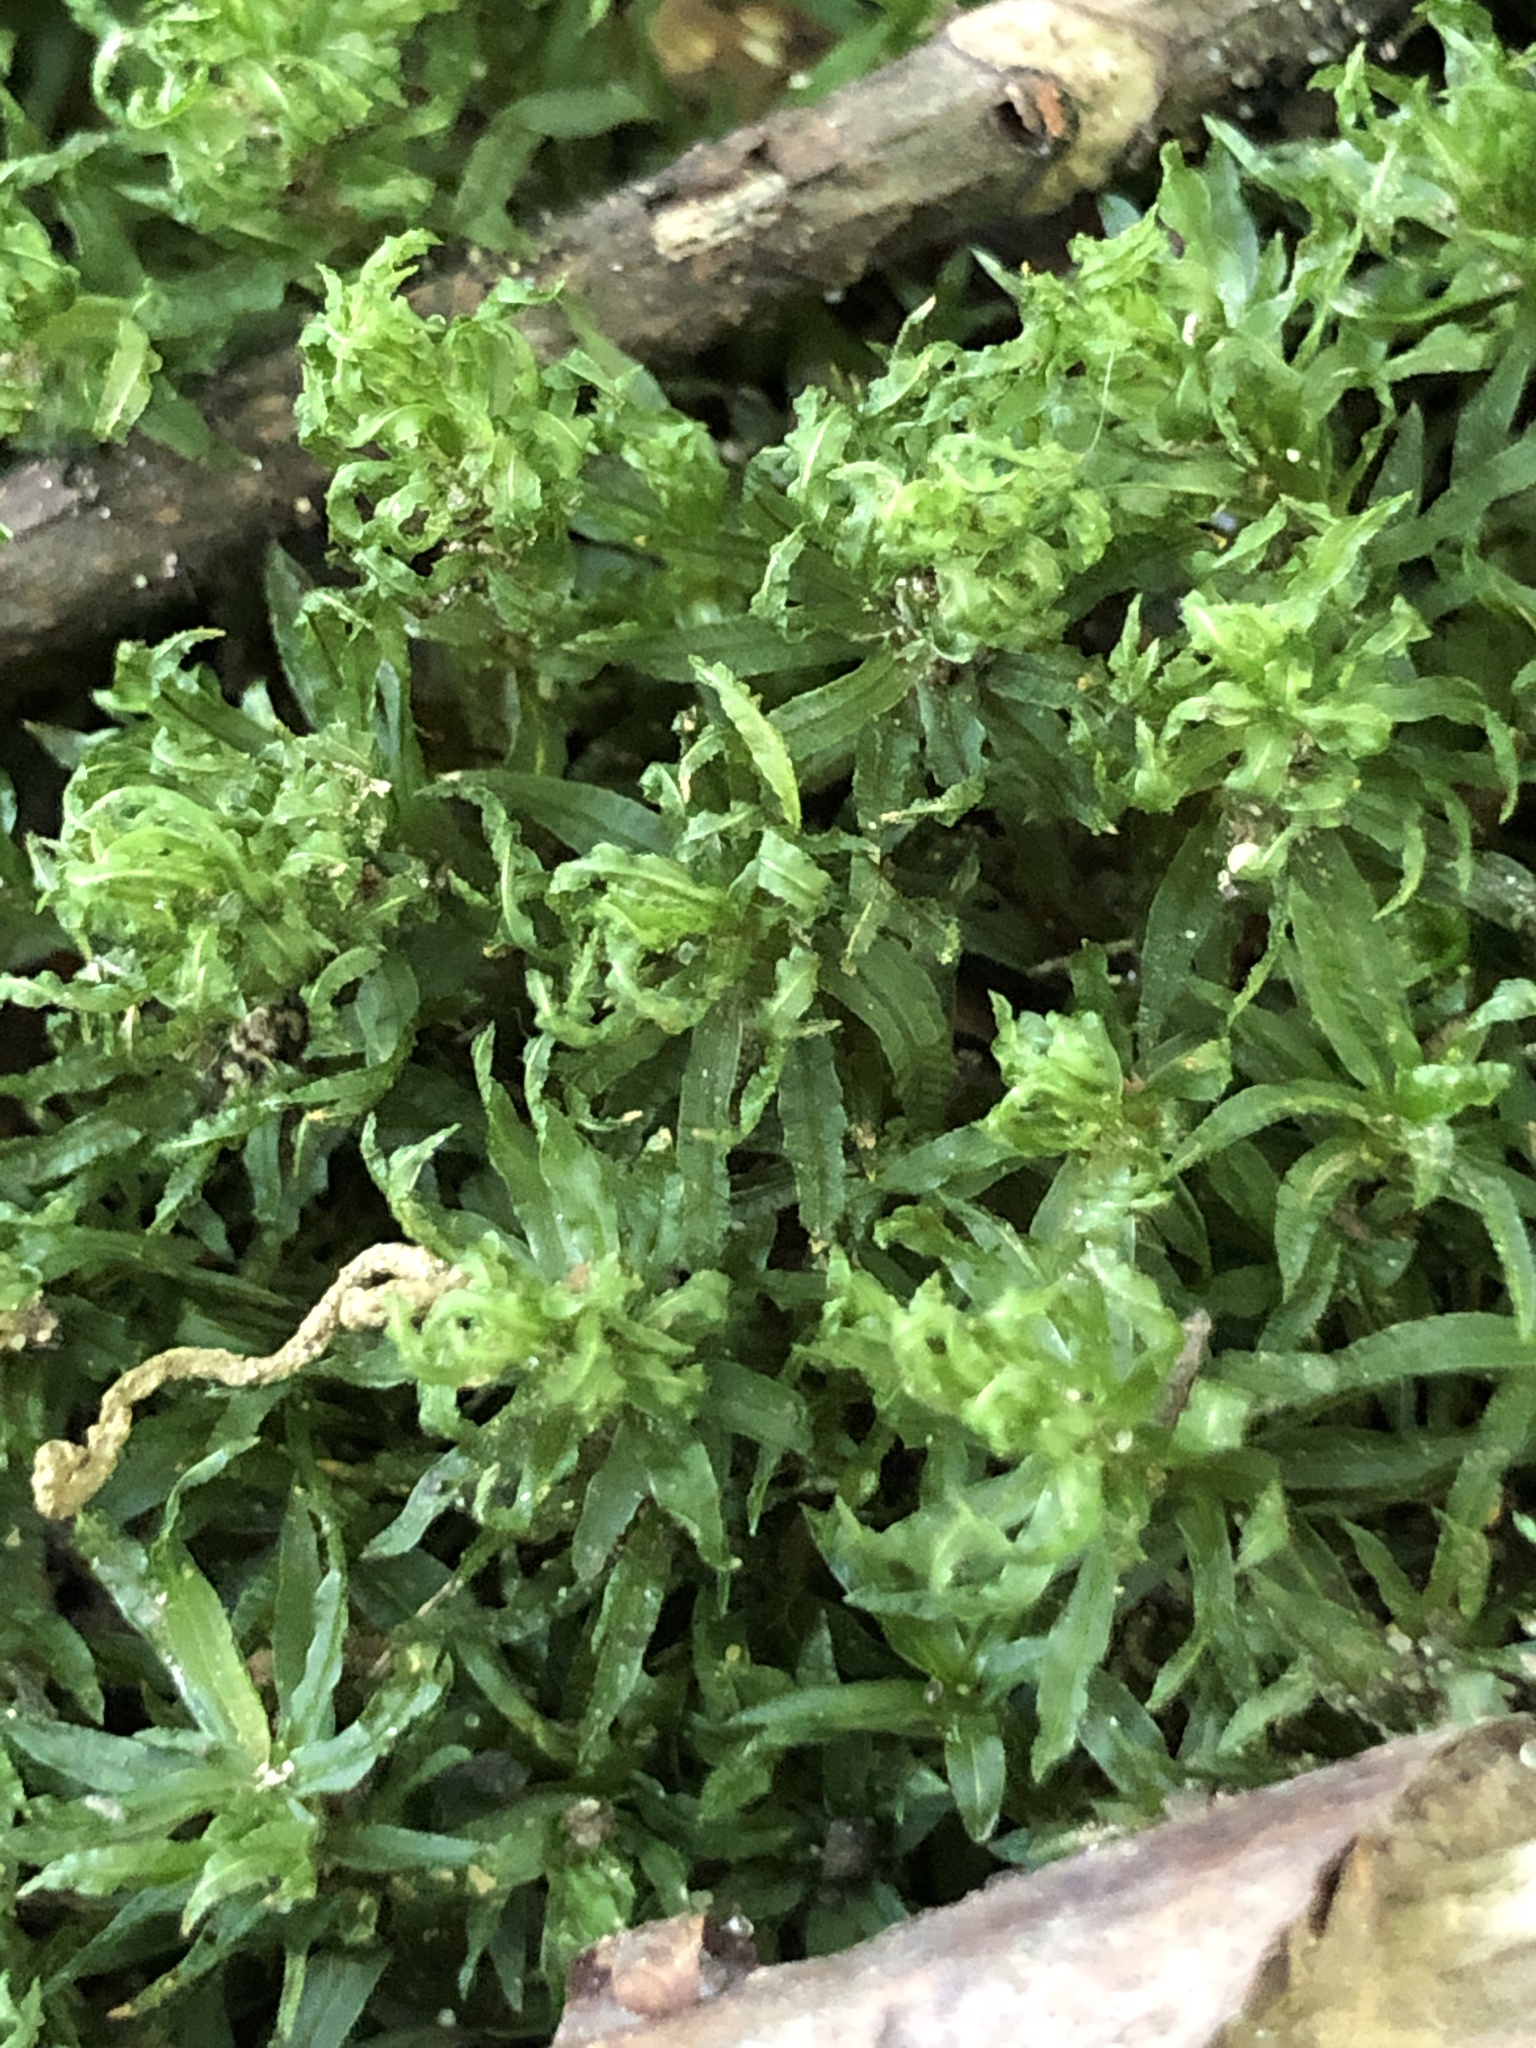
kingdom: Plantae
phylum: Bryophyta
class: Polytrichopsida
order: Polytrichales
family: Polytrichaceae
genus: Atrichum
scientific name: Atrichum undulatum
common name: Common smoothcap
